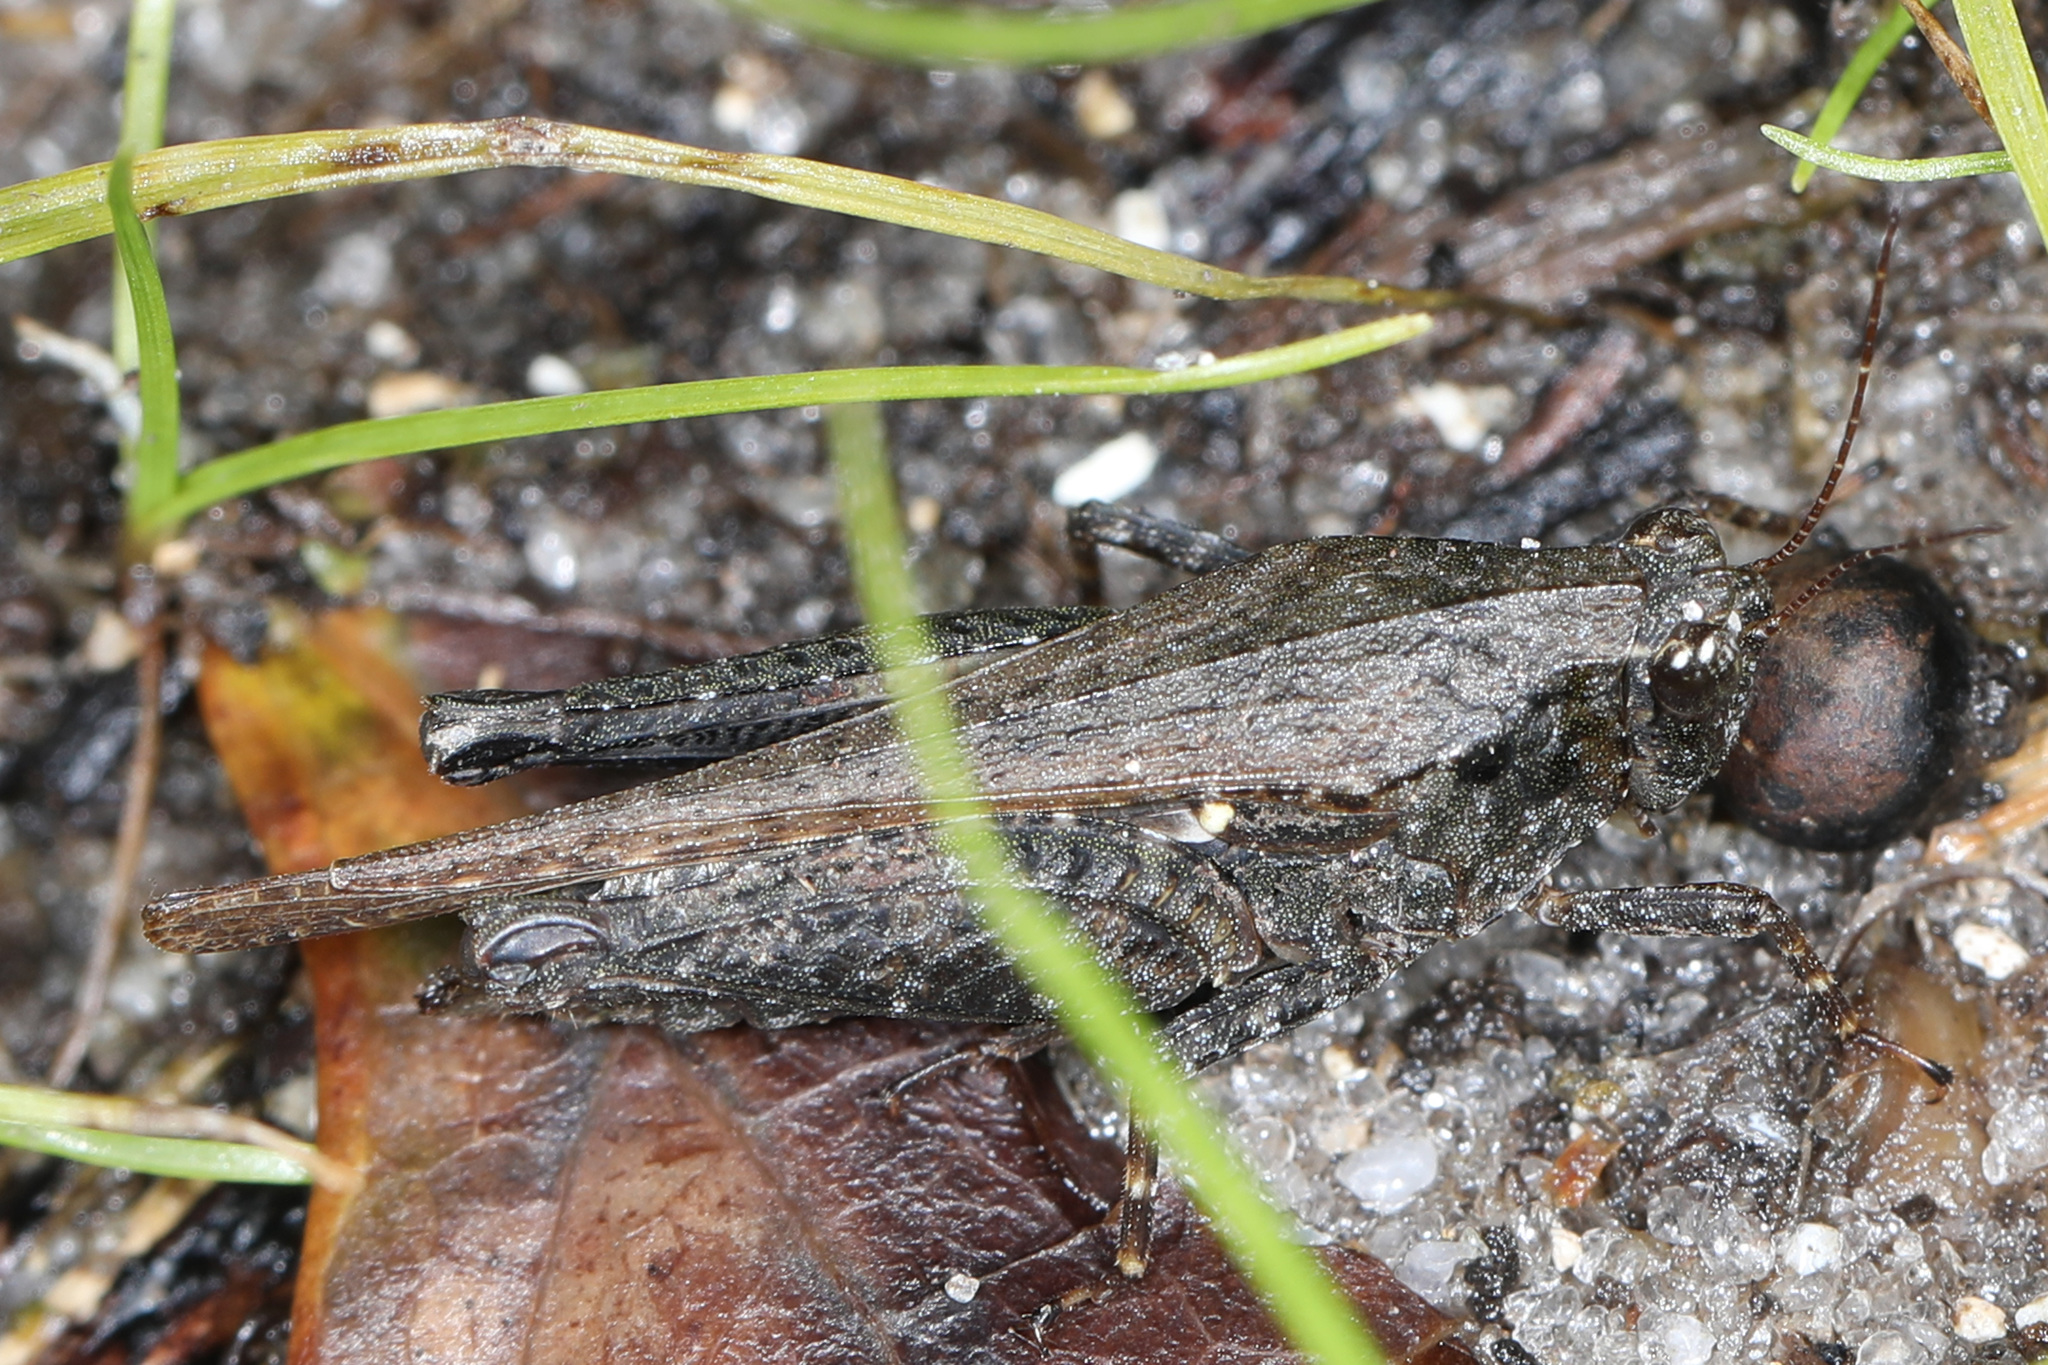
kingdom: Animalia
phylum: Arthropoda
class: Insecta
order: Orthoptera
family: Tetrigidae
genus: Tettigidea
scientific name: Tettigidea laterale
